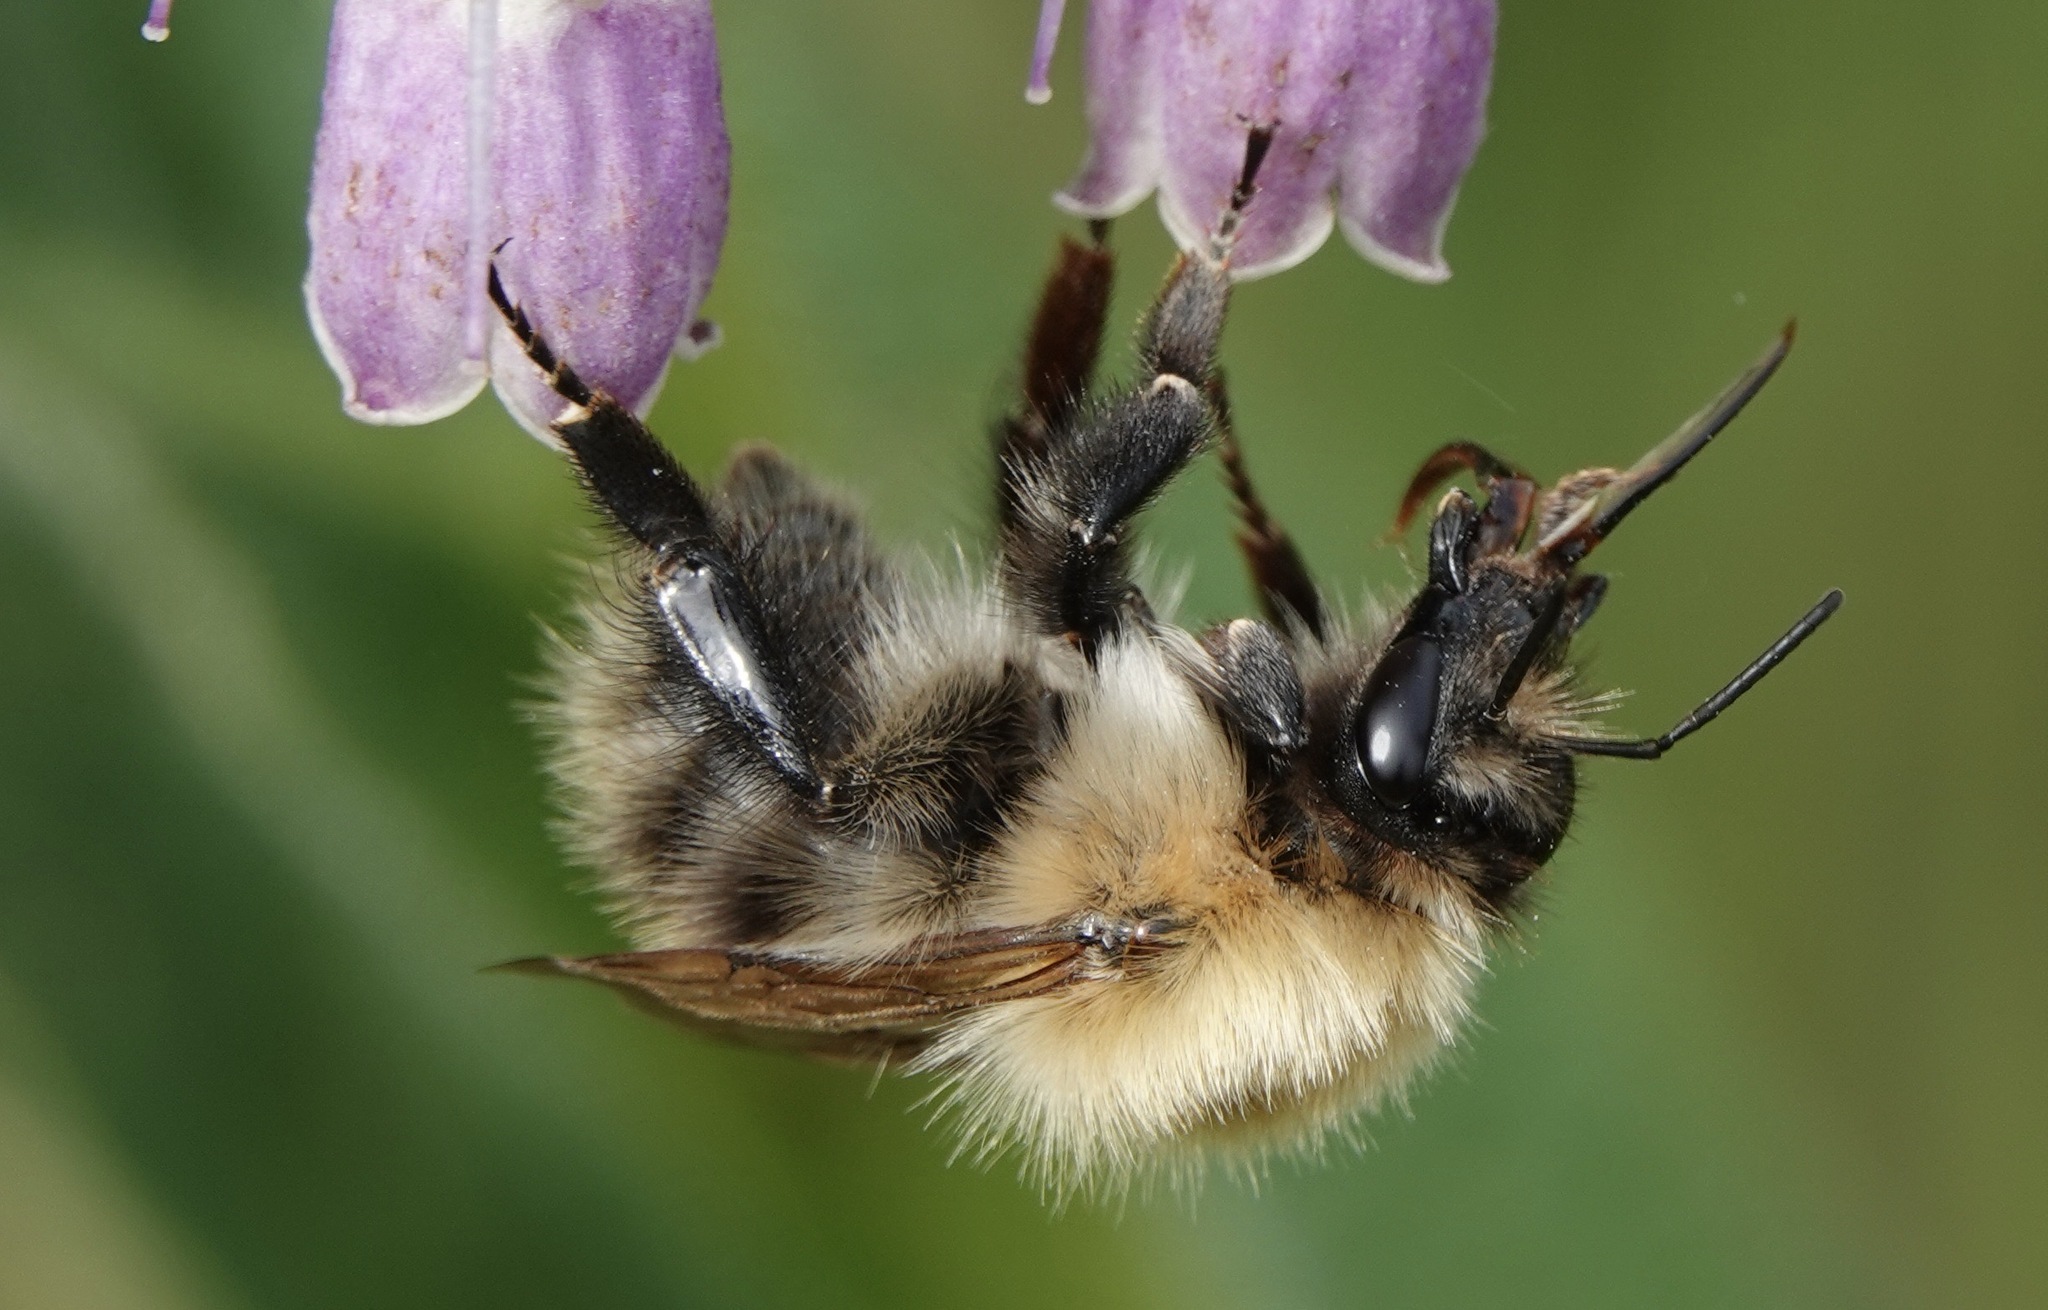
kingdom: Animalia
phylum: Arthropoda
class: Insecta
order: Hymenoptera
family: Apidae
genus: Bombus
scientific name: Bombus pascuorum
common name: Common carder bee
